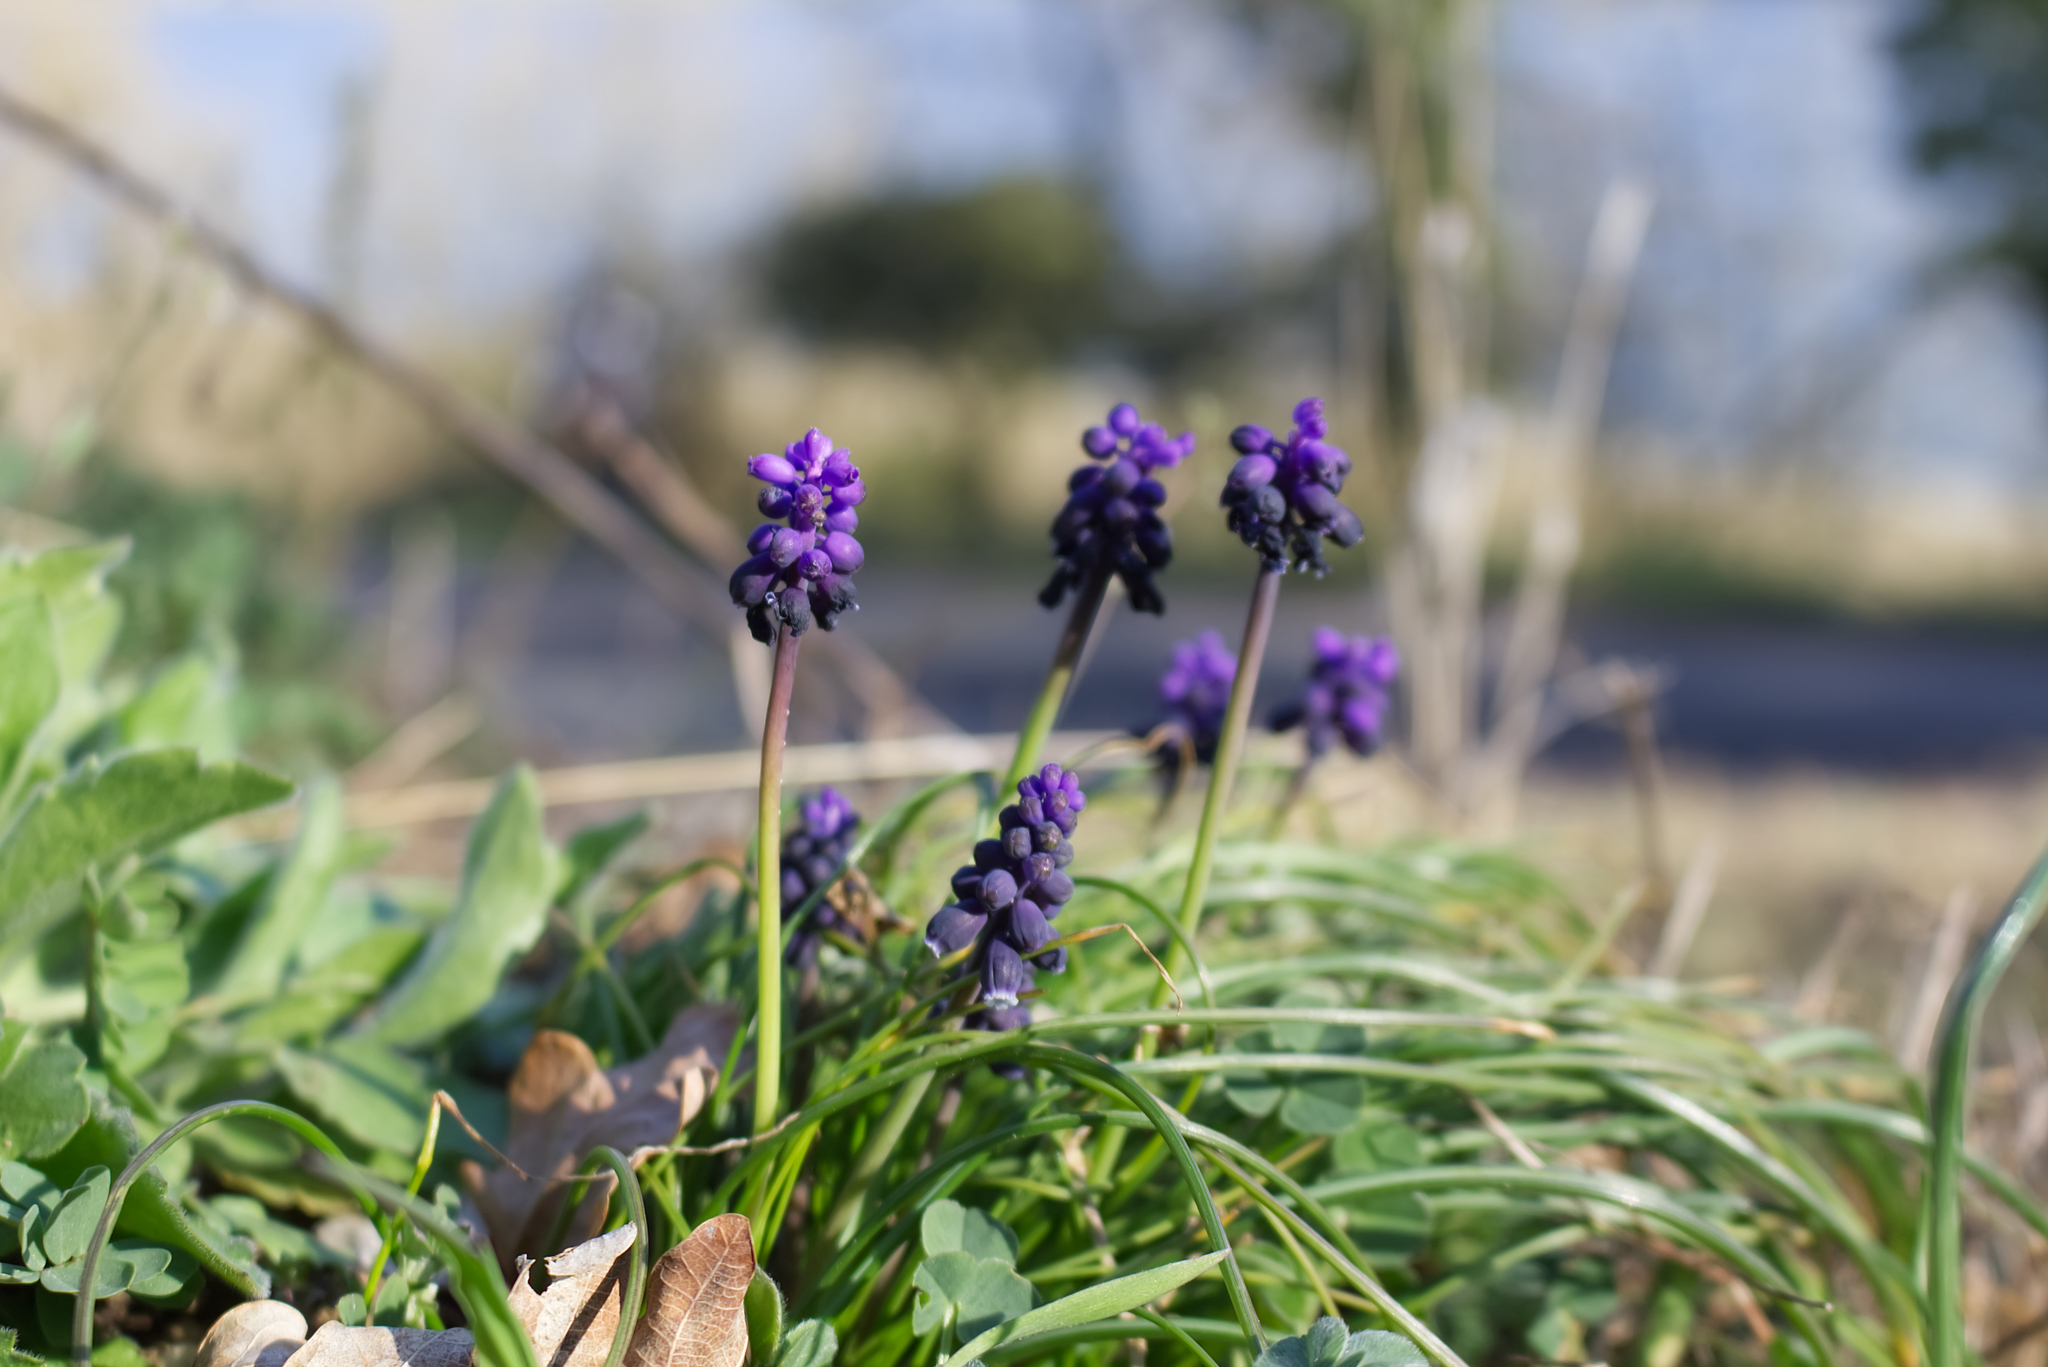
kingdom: Plantae
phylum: Tracheophyta
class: Liliopsida
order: Asparagales
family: Asparagaceae
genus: Muscari
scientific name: Muscari neglectum
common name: Grape-hyacinth
